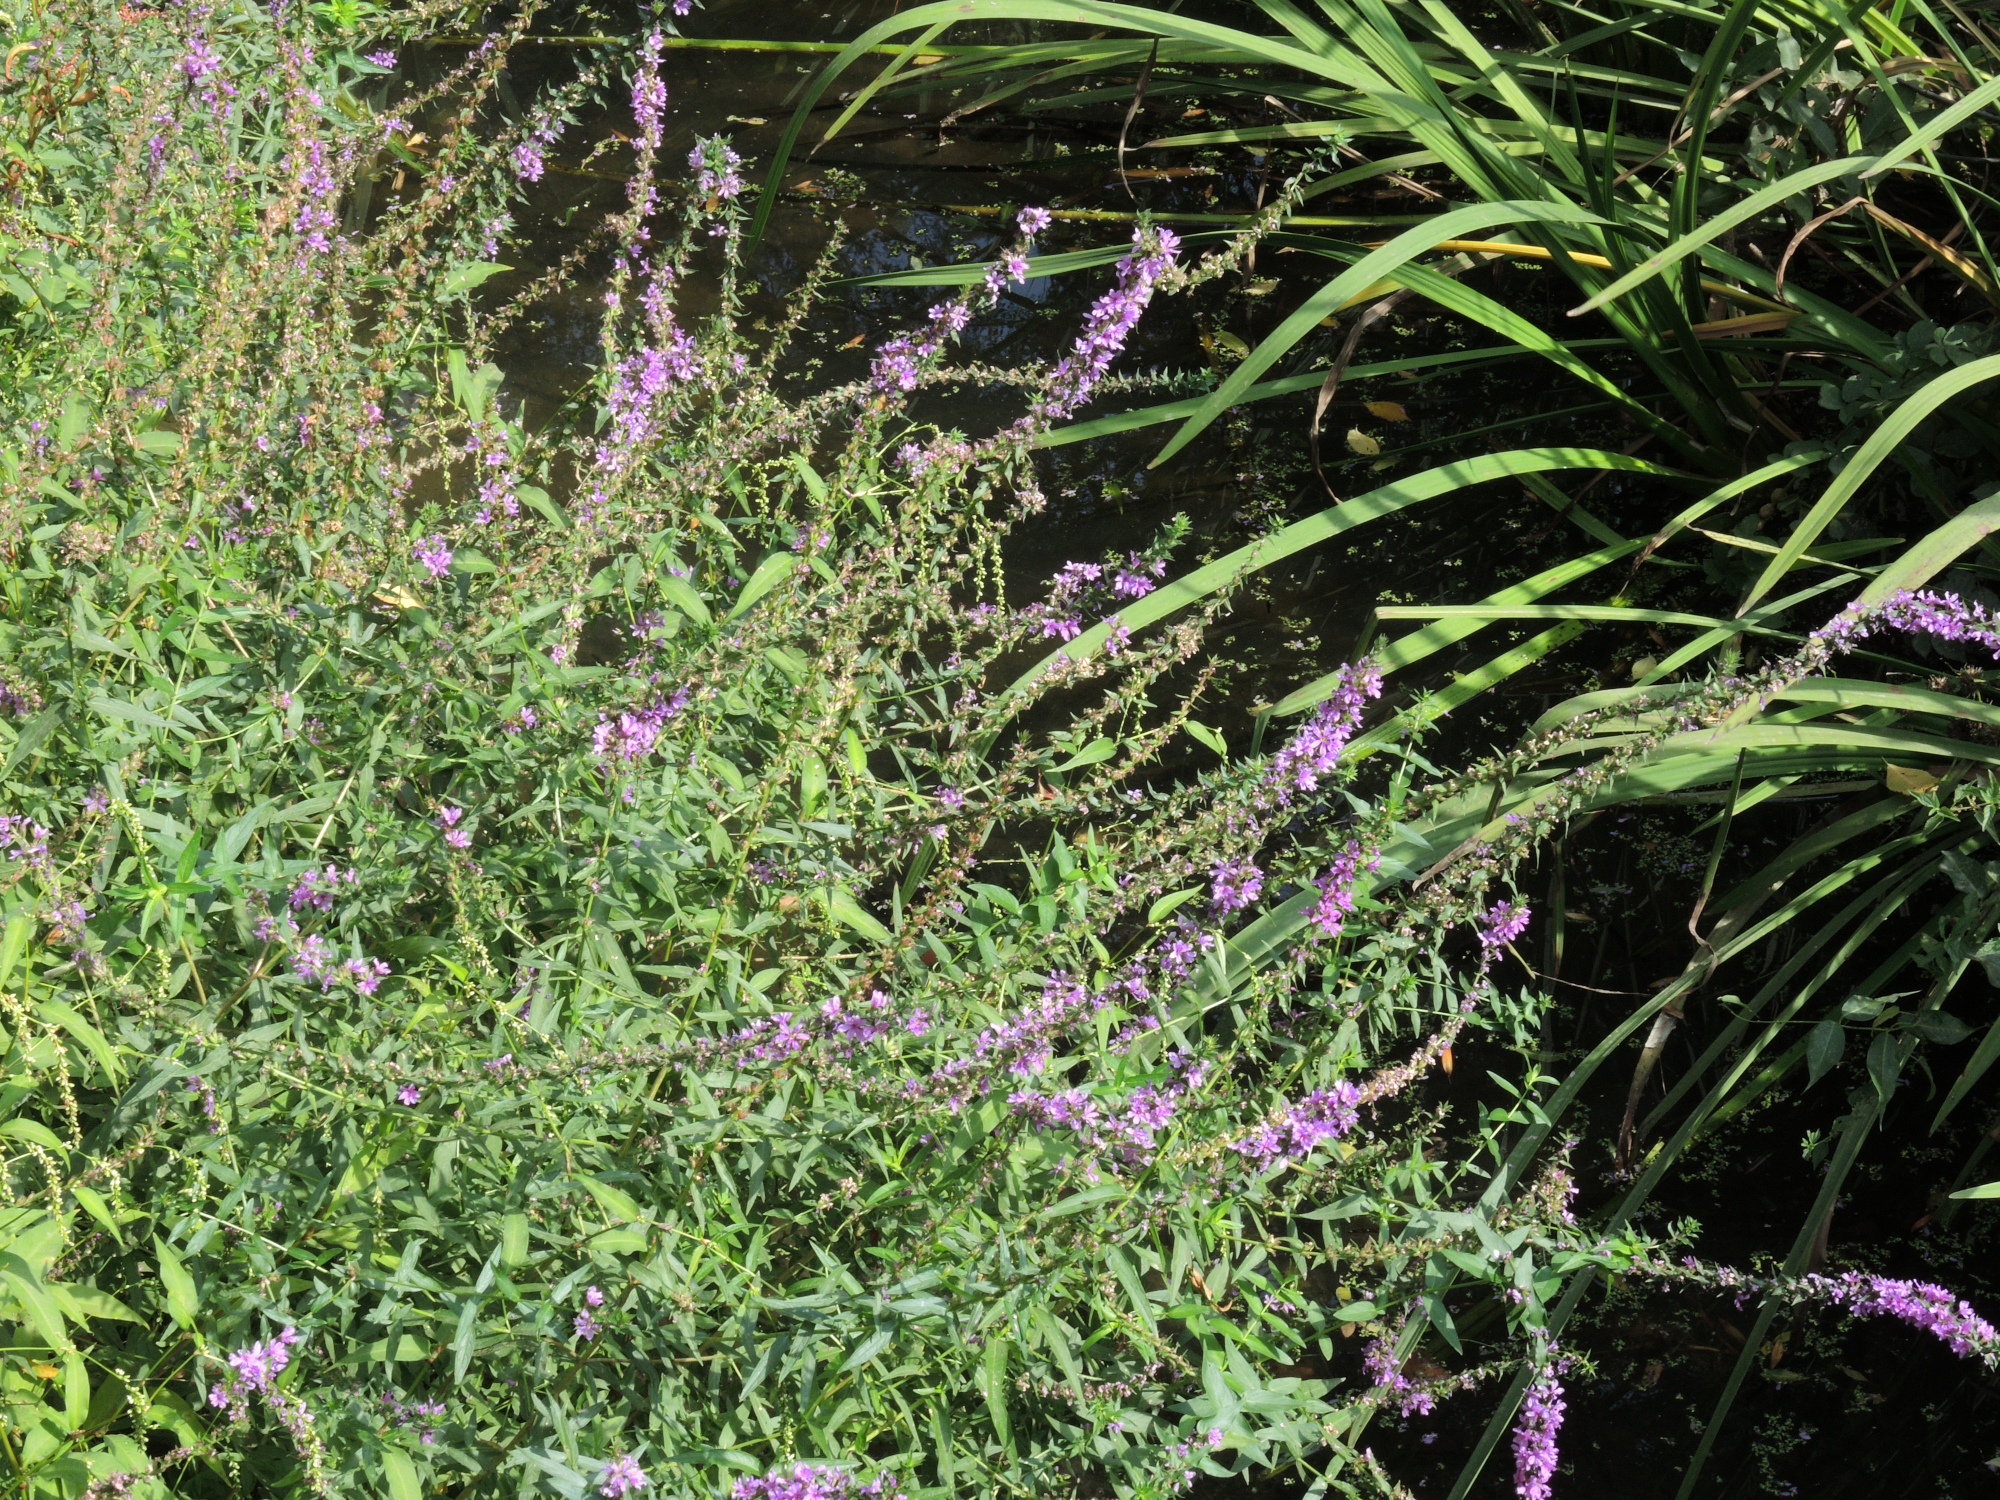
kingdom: Plantae
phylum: Tracheophyta
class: Magnoliopsida
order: Myrtales
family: Lythraceae
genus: Lythrum
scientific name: Lythrum salicaria
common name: Purple loosestrife
